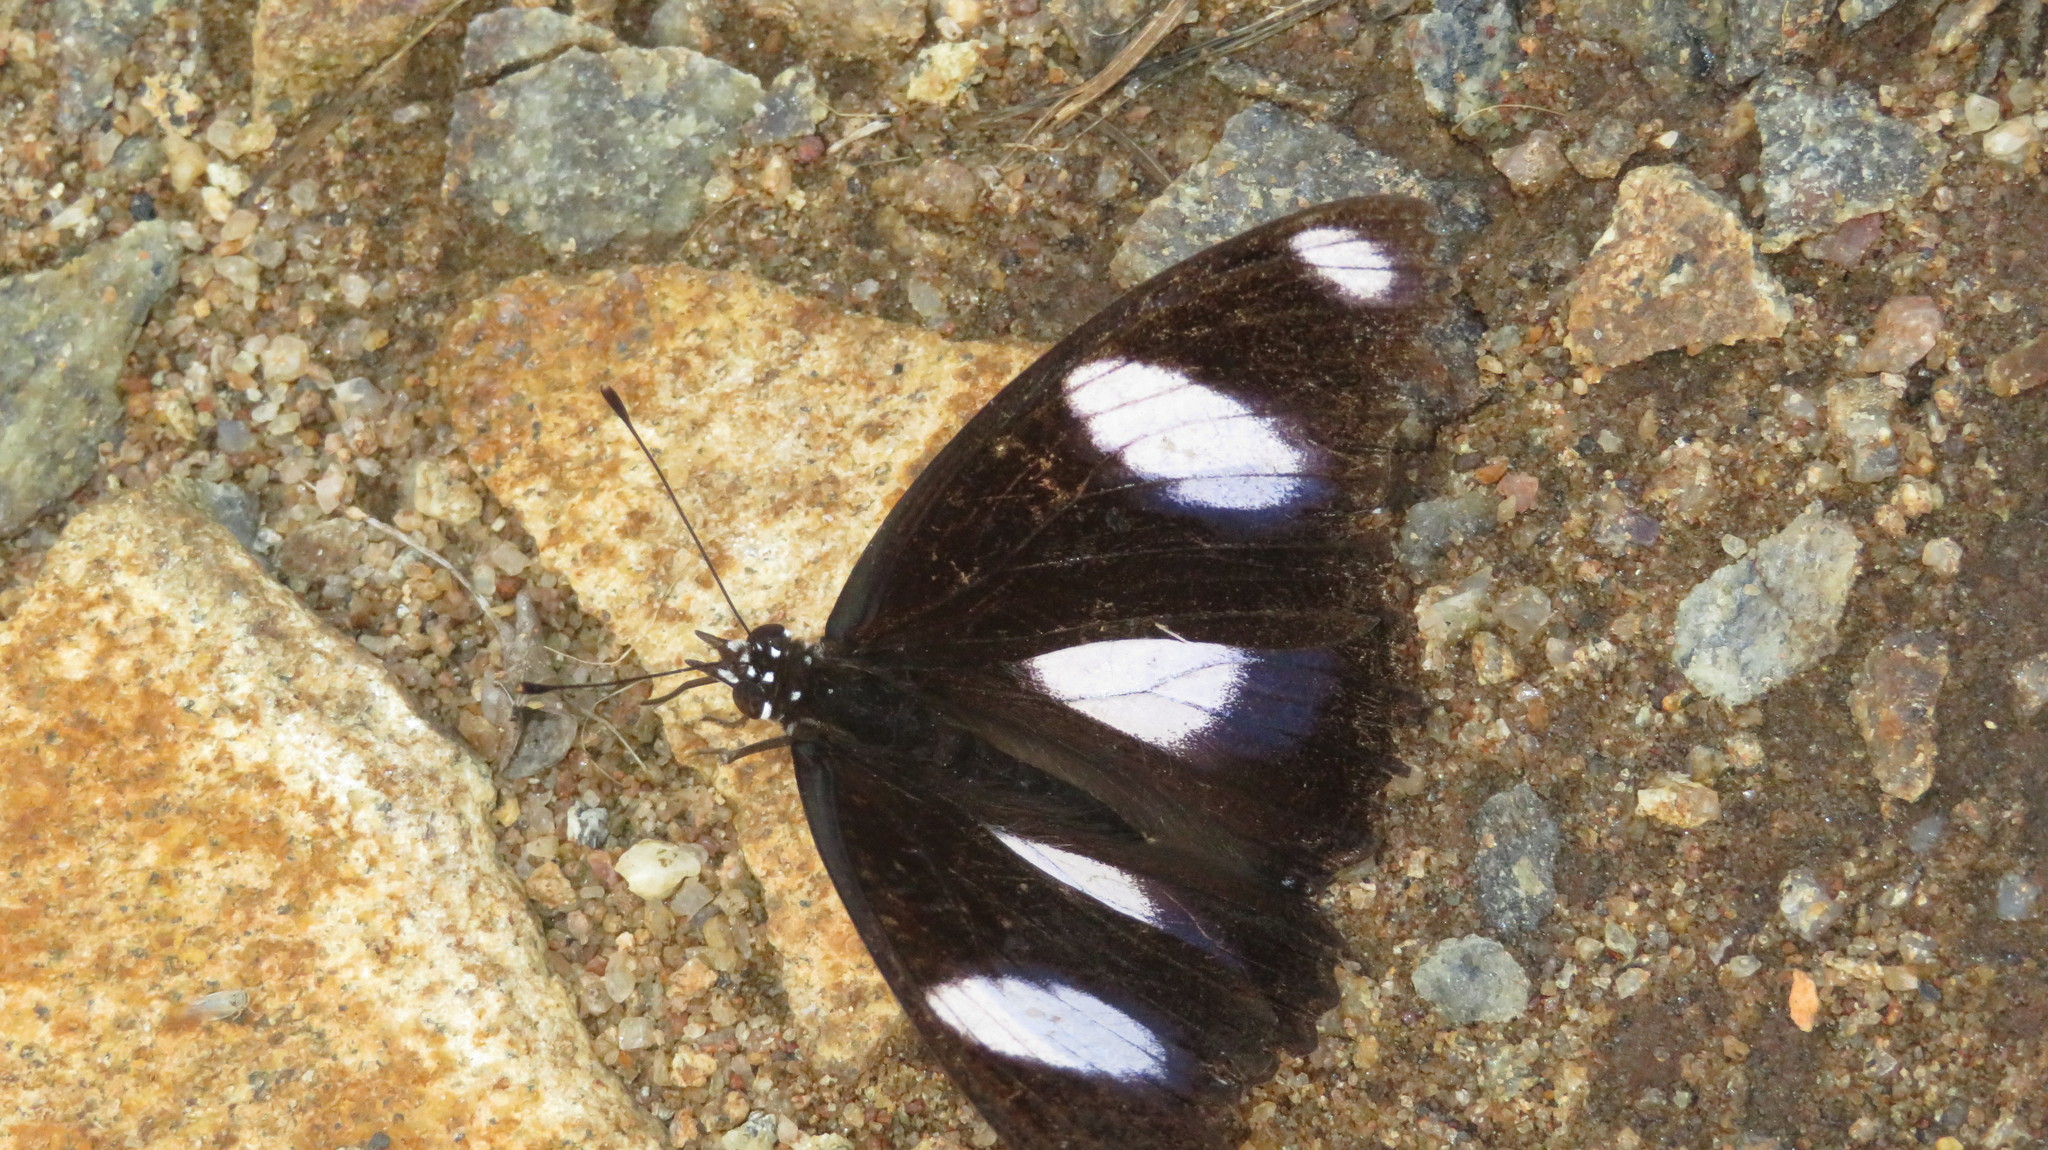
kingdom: Animalia
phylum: Arthropoda
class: Insecta
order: Lepidoptera
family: Nymphalidae
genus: Hypolimnas
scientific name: Hypolimnas misippus
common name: False plain tiger
